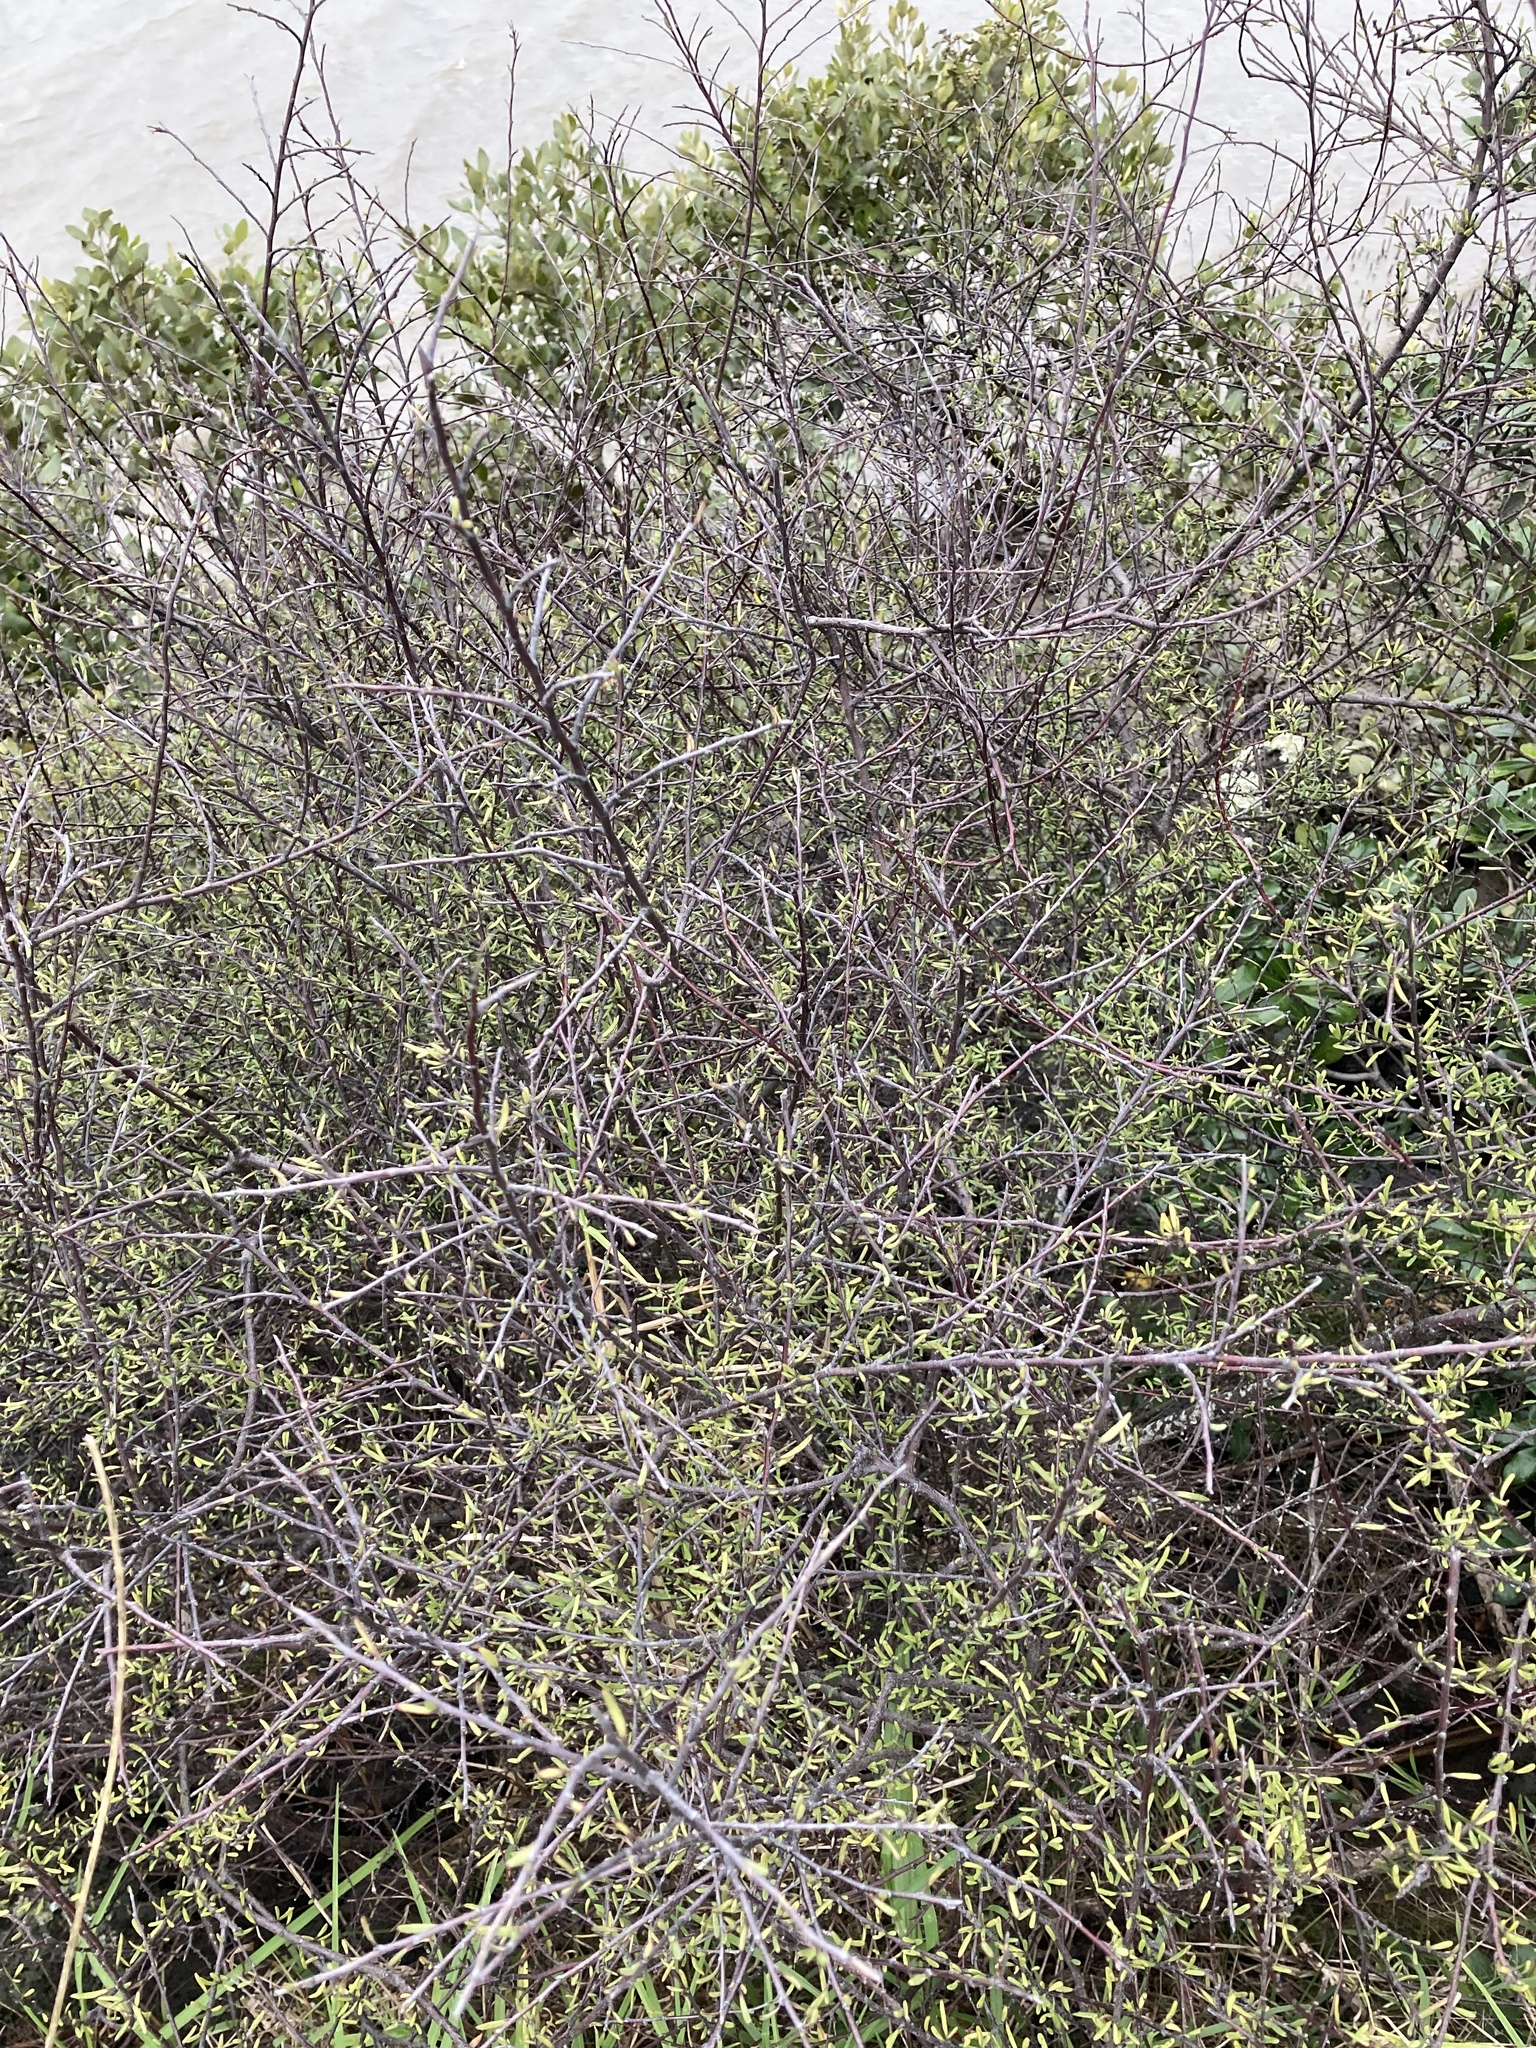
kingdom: Plantae
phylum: Tracheophyta
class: Magnoliopsida
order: Malvales
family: Malvaceae
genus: Plagianthus
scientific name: Plagianthus divaricatus
